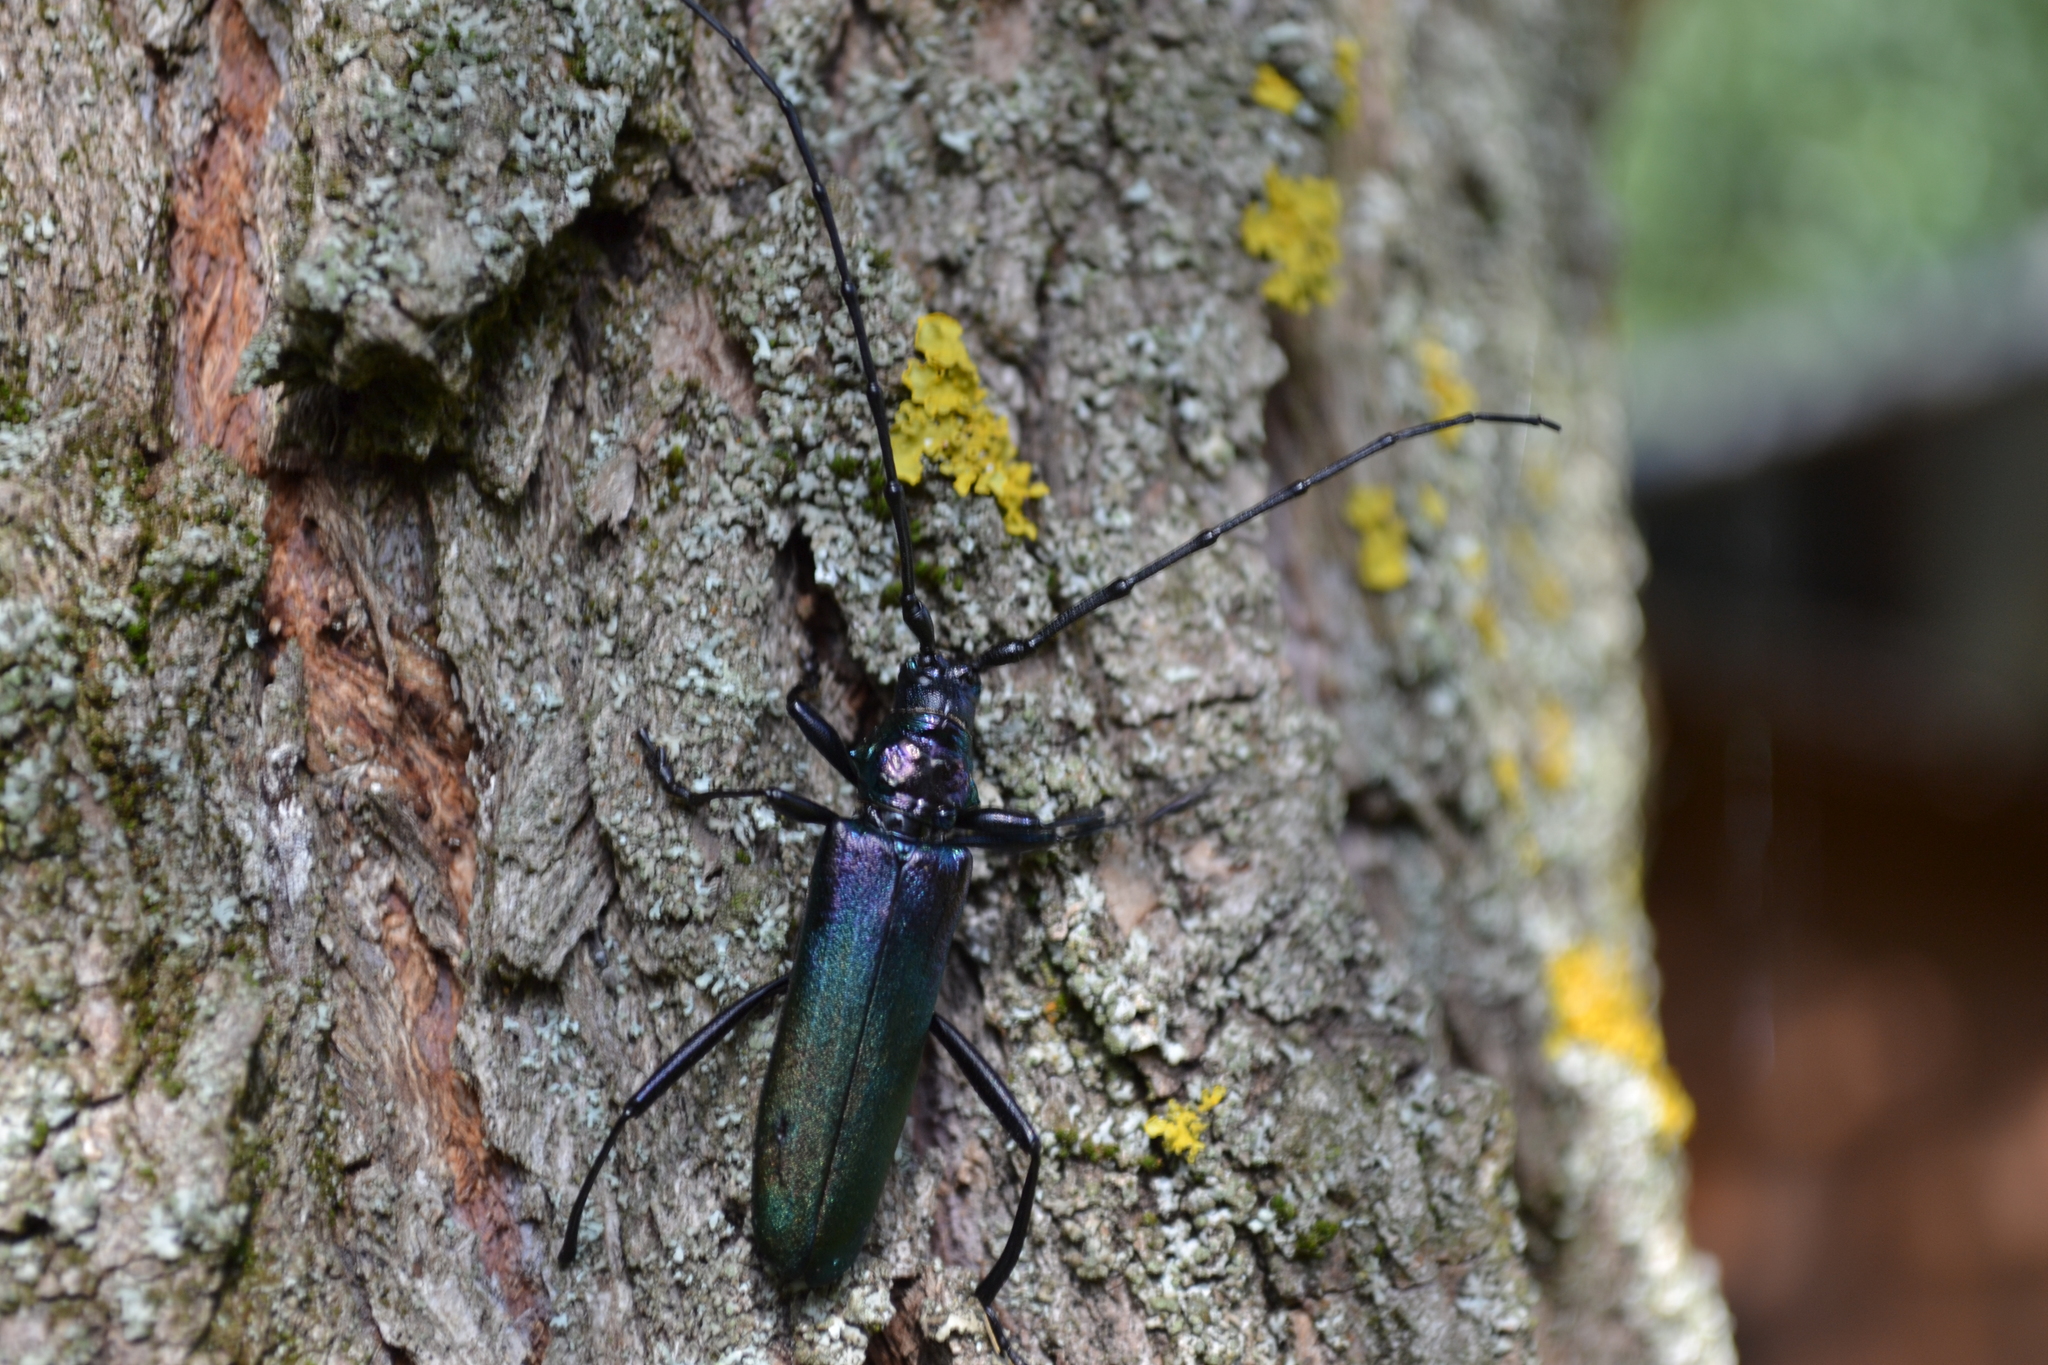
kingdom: Animalia
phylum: Arthropoda
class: Insecta
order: Coleoptera
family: Cerambycidae
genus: Aromia
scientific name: Aromia moschata
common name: Musk beetle
